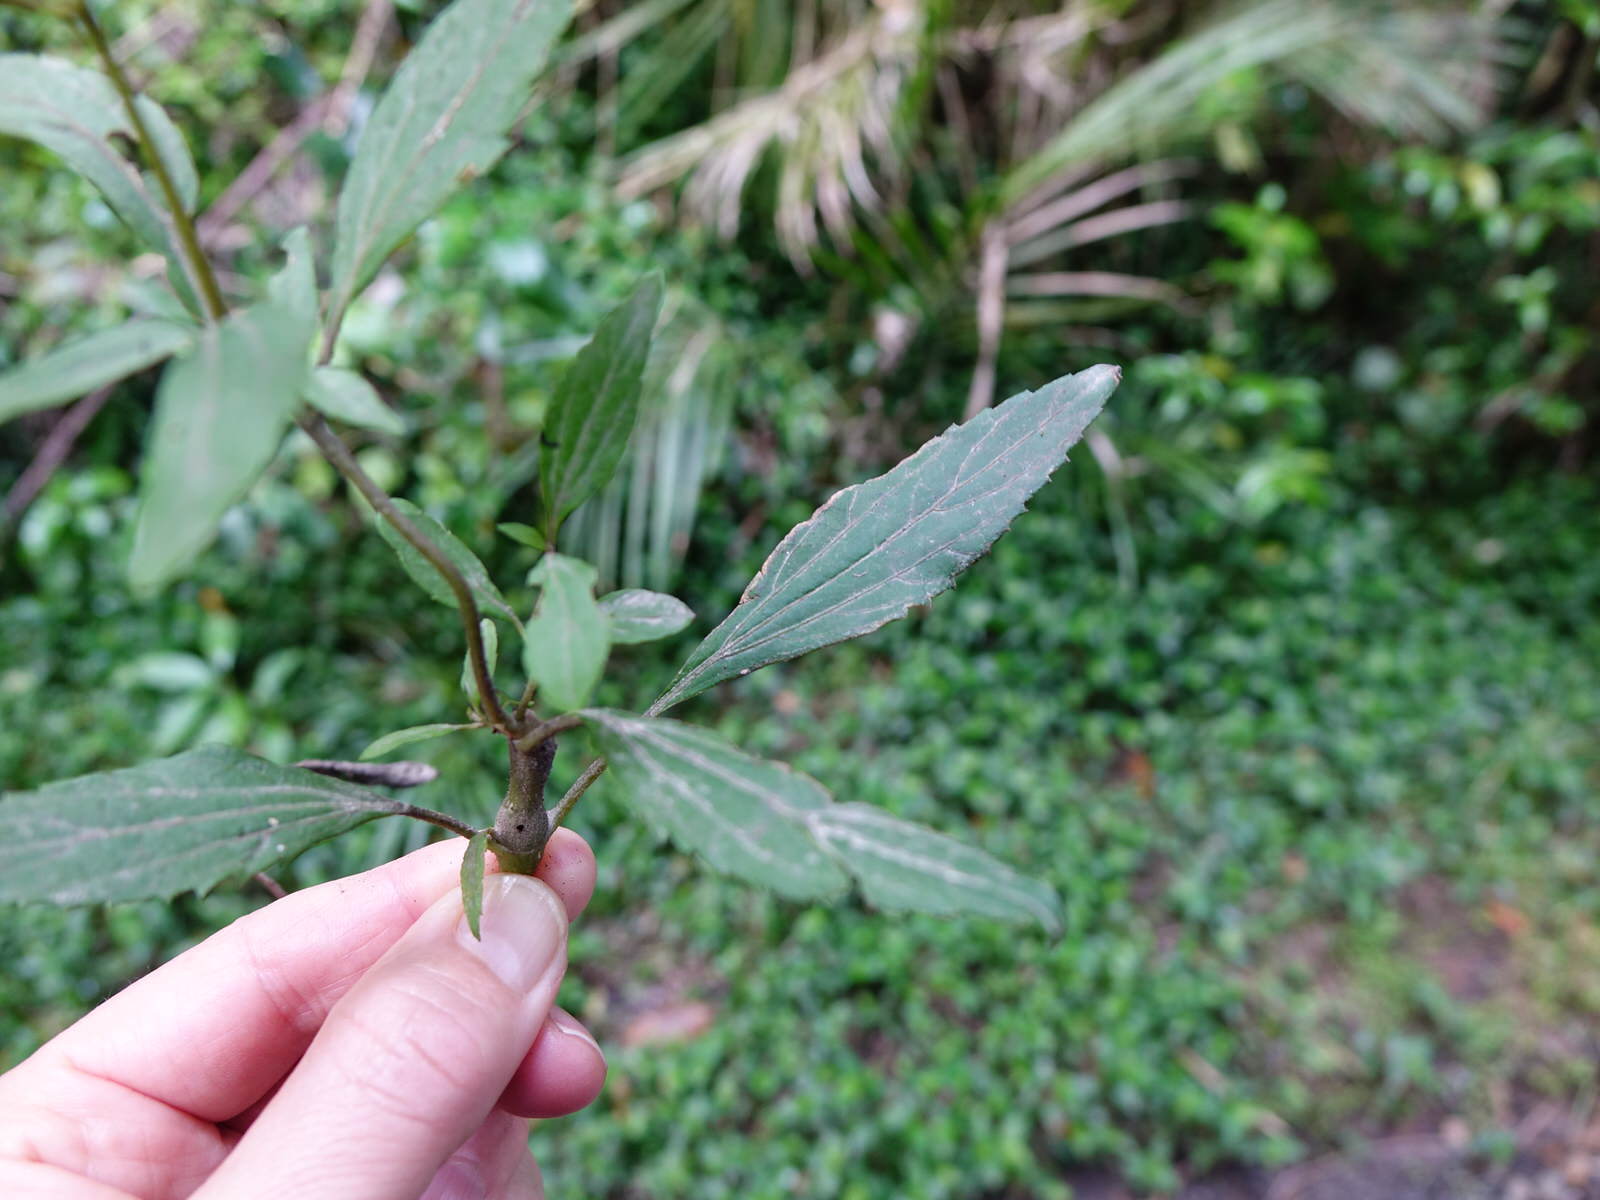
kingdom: Animalia
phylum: Arthropoda
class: Insecta
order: Diptera
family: Tephritidae
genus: Procecidochares
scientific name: Procecidochares alani
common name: Fruit fly
